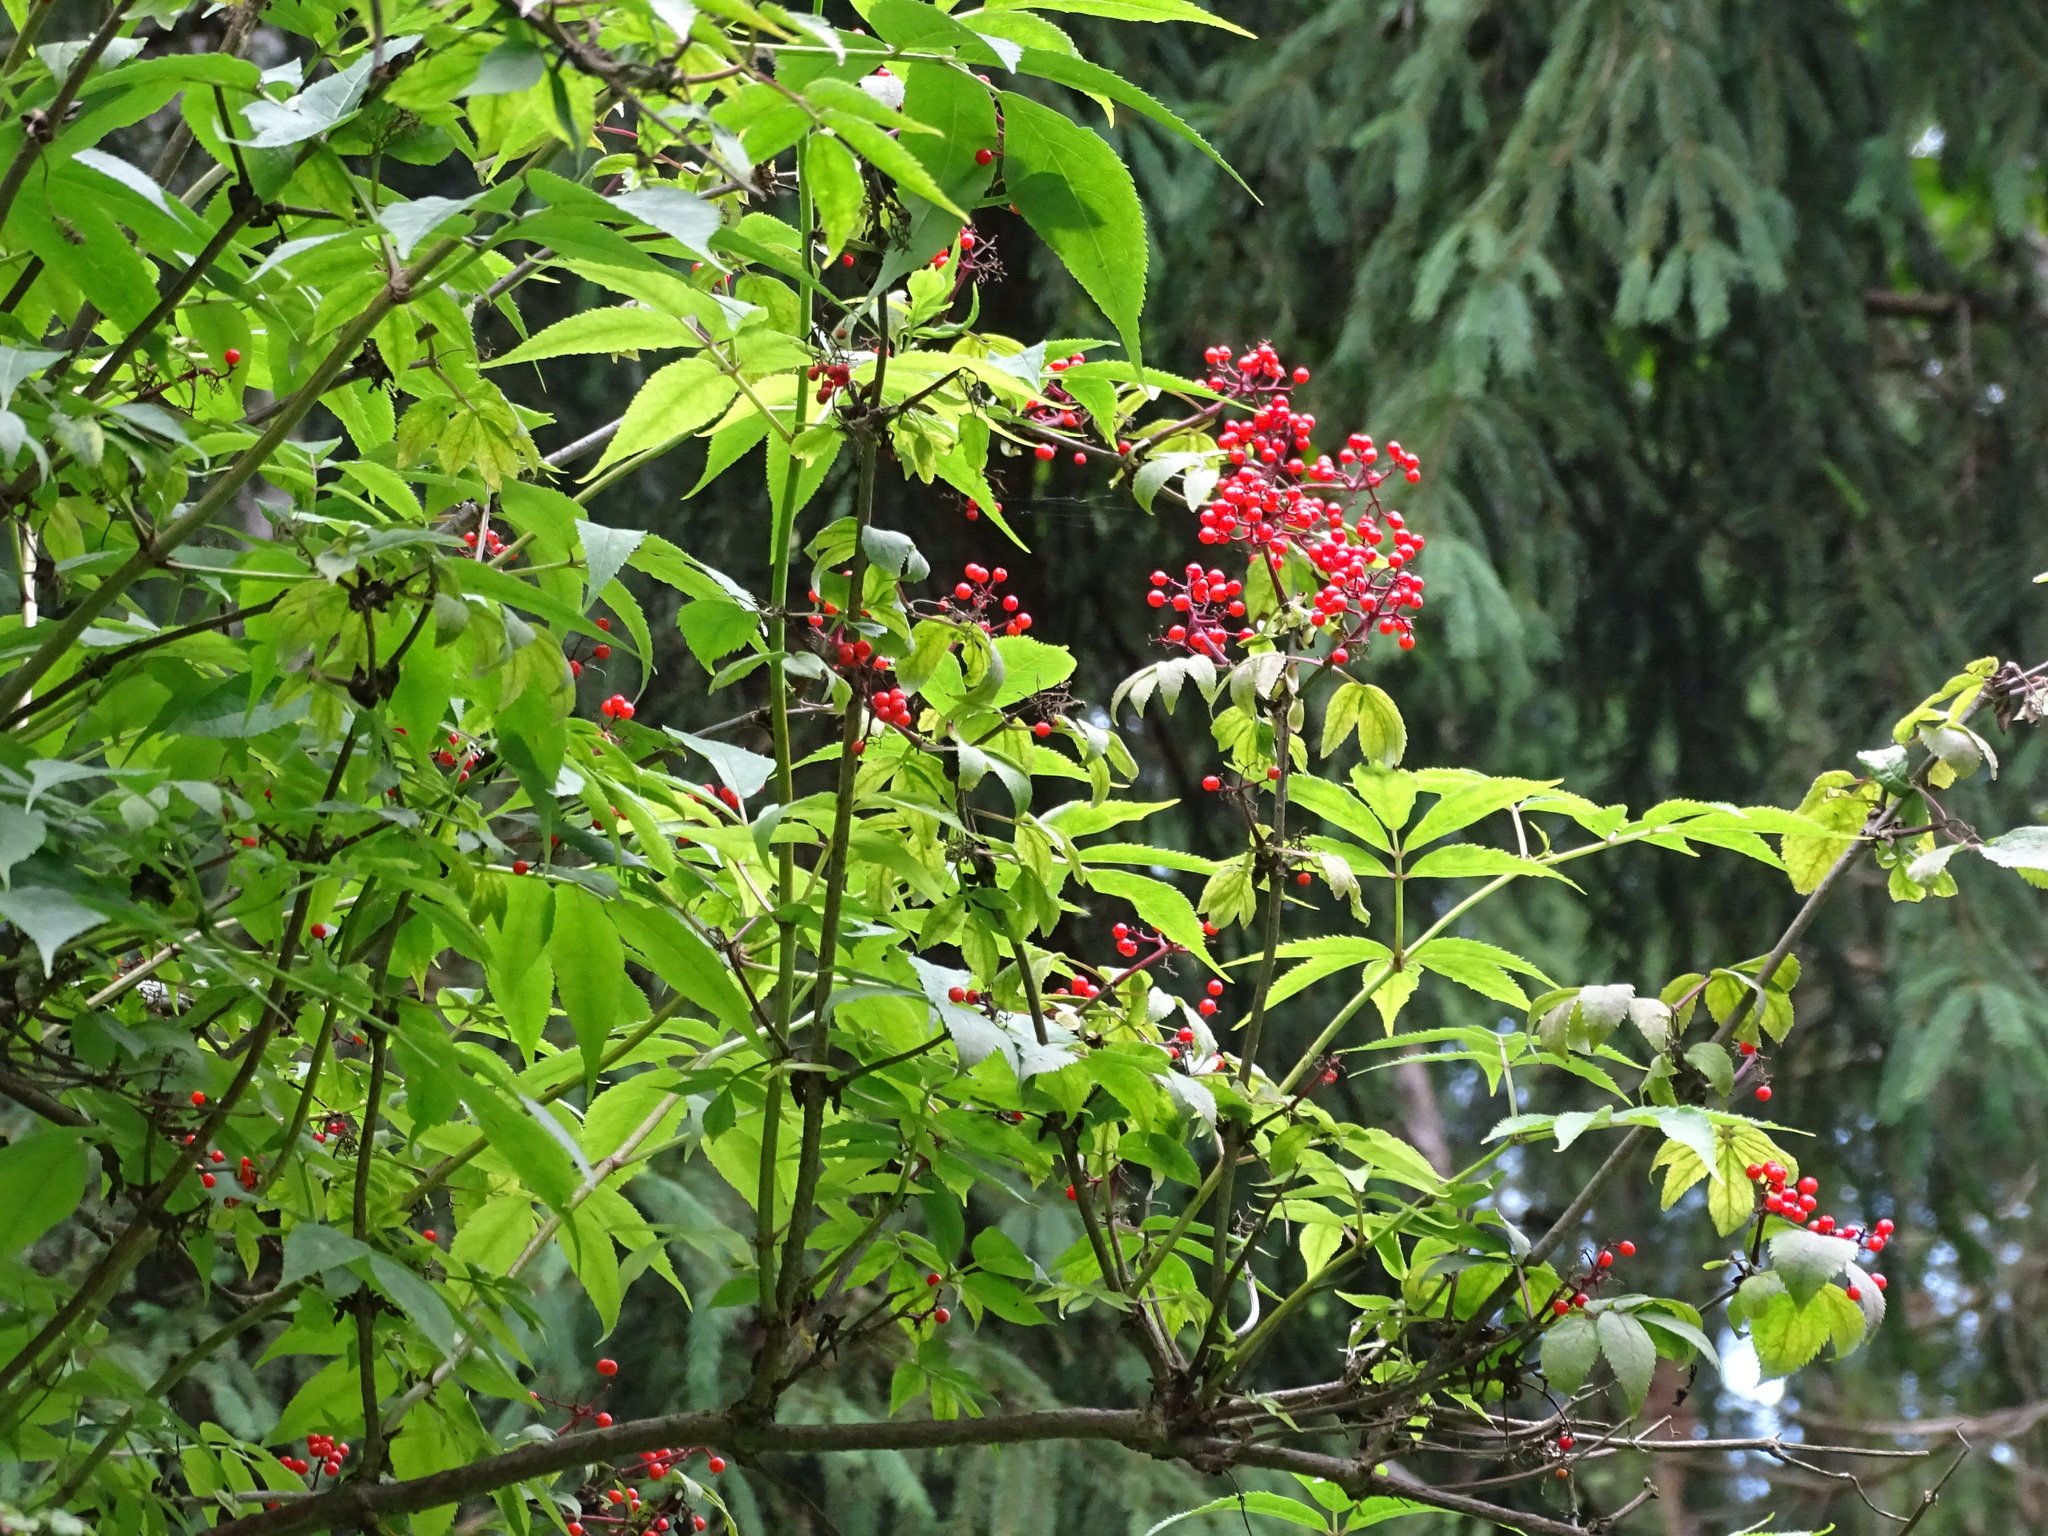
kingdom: Plantae
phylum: Tracheophyta
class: Magnoliopsida
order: Dipsacales
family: Viburnaceae
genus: Sambucus
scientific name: Sambucus racemosa
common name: Red-berried elder
